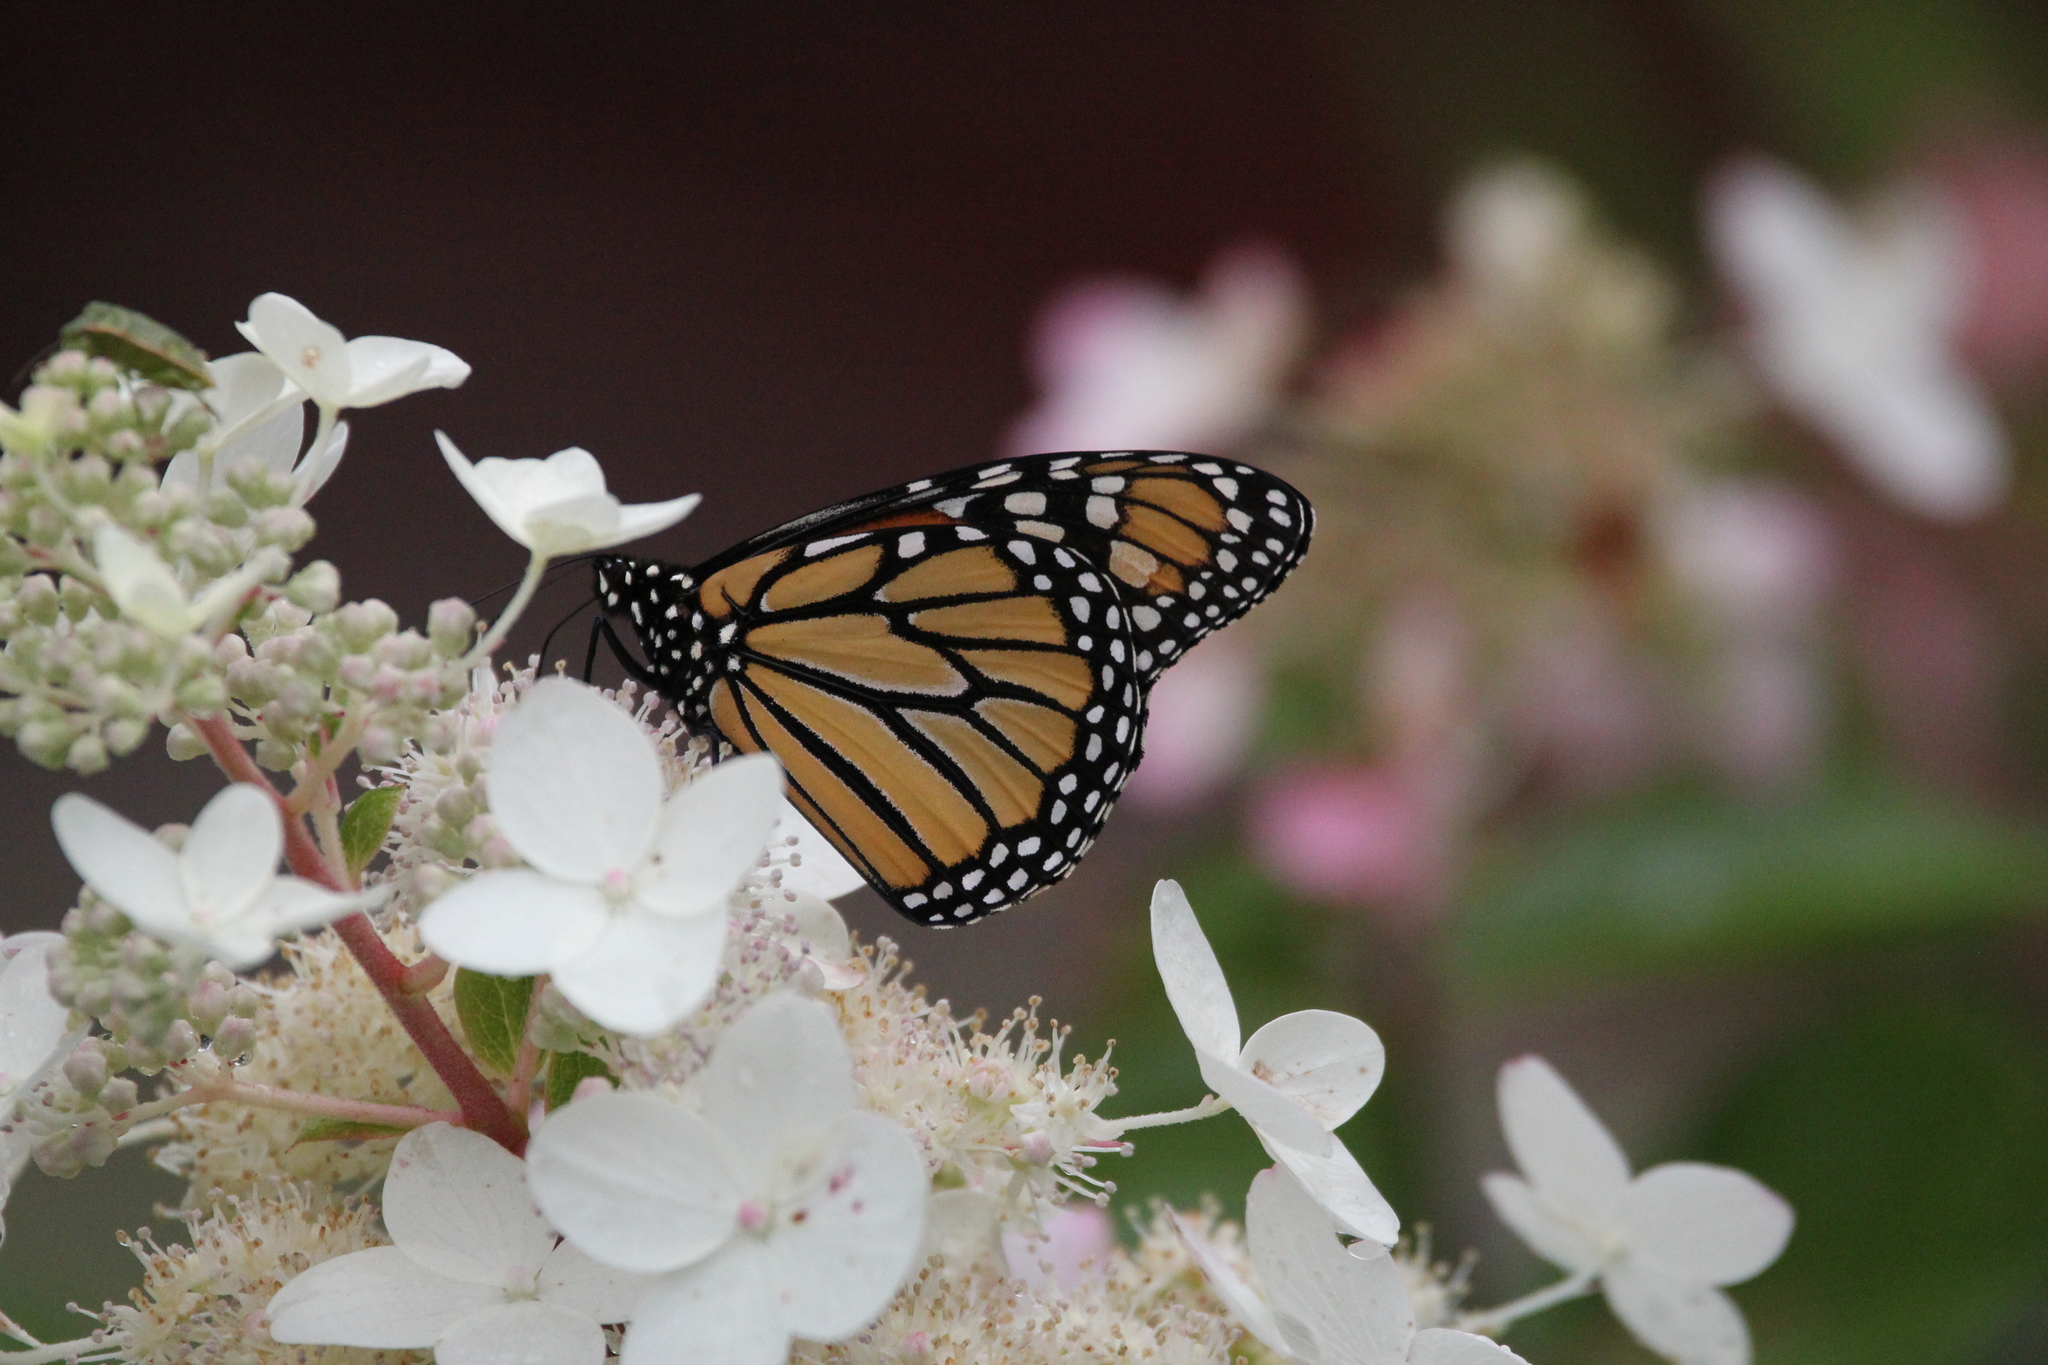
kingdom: Animalia
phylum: Arthropoda
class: Insecta
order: Lepidoptera
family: Nymphalidae
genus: Danaus
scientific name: Danaus plexippus
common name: Monarch
